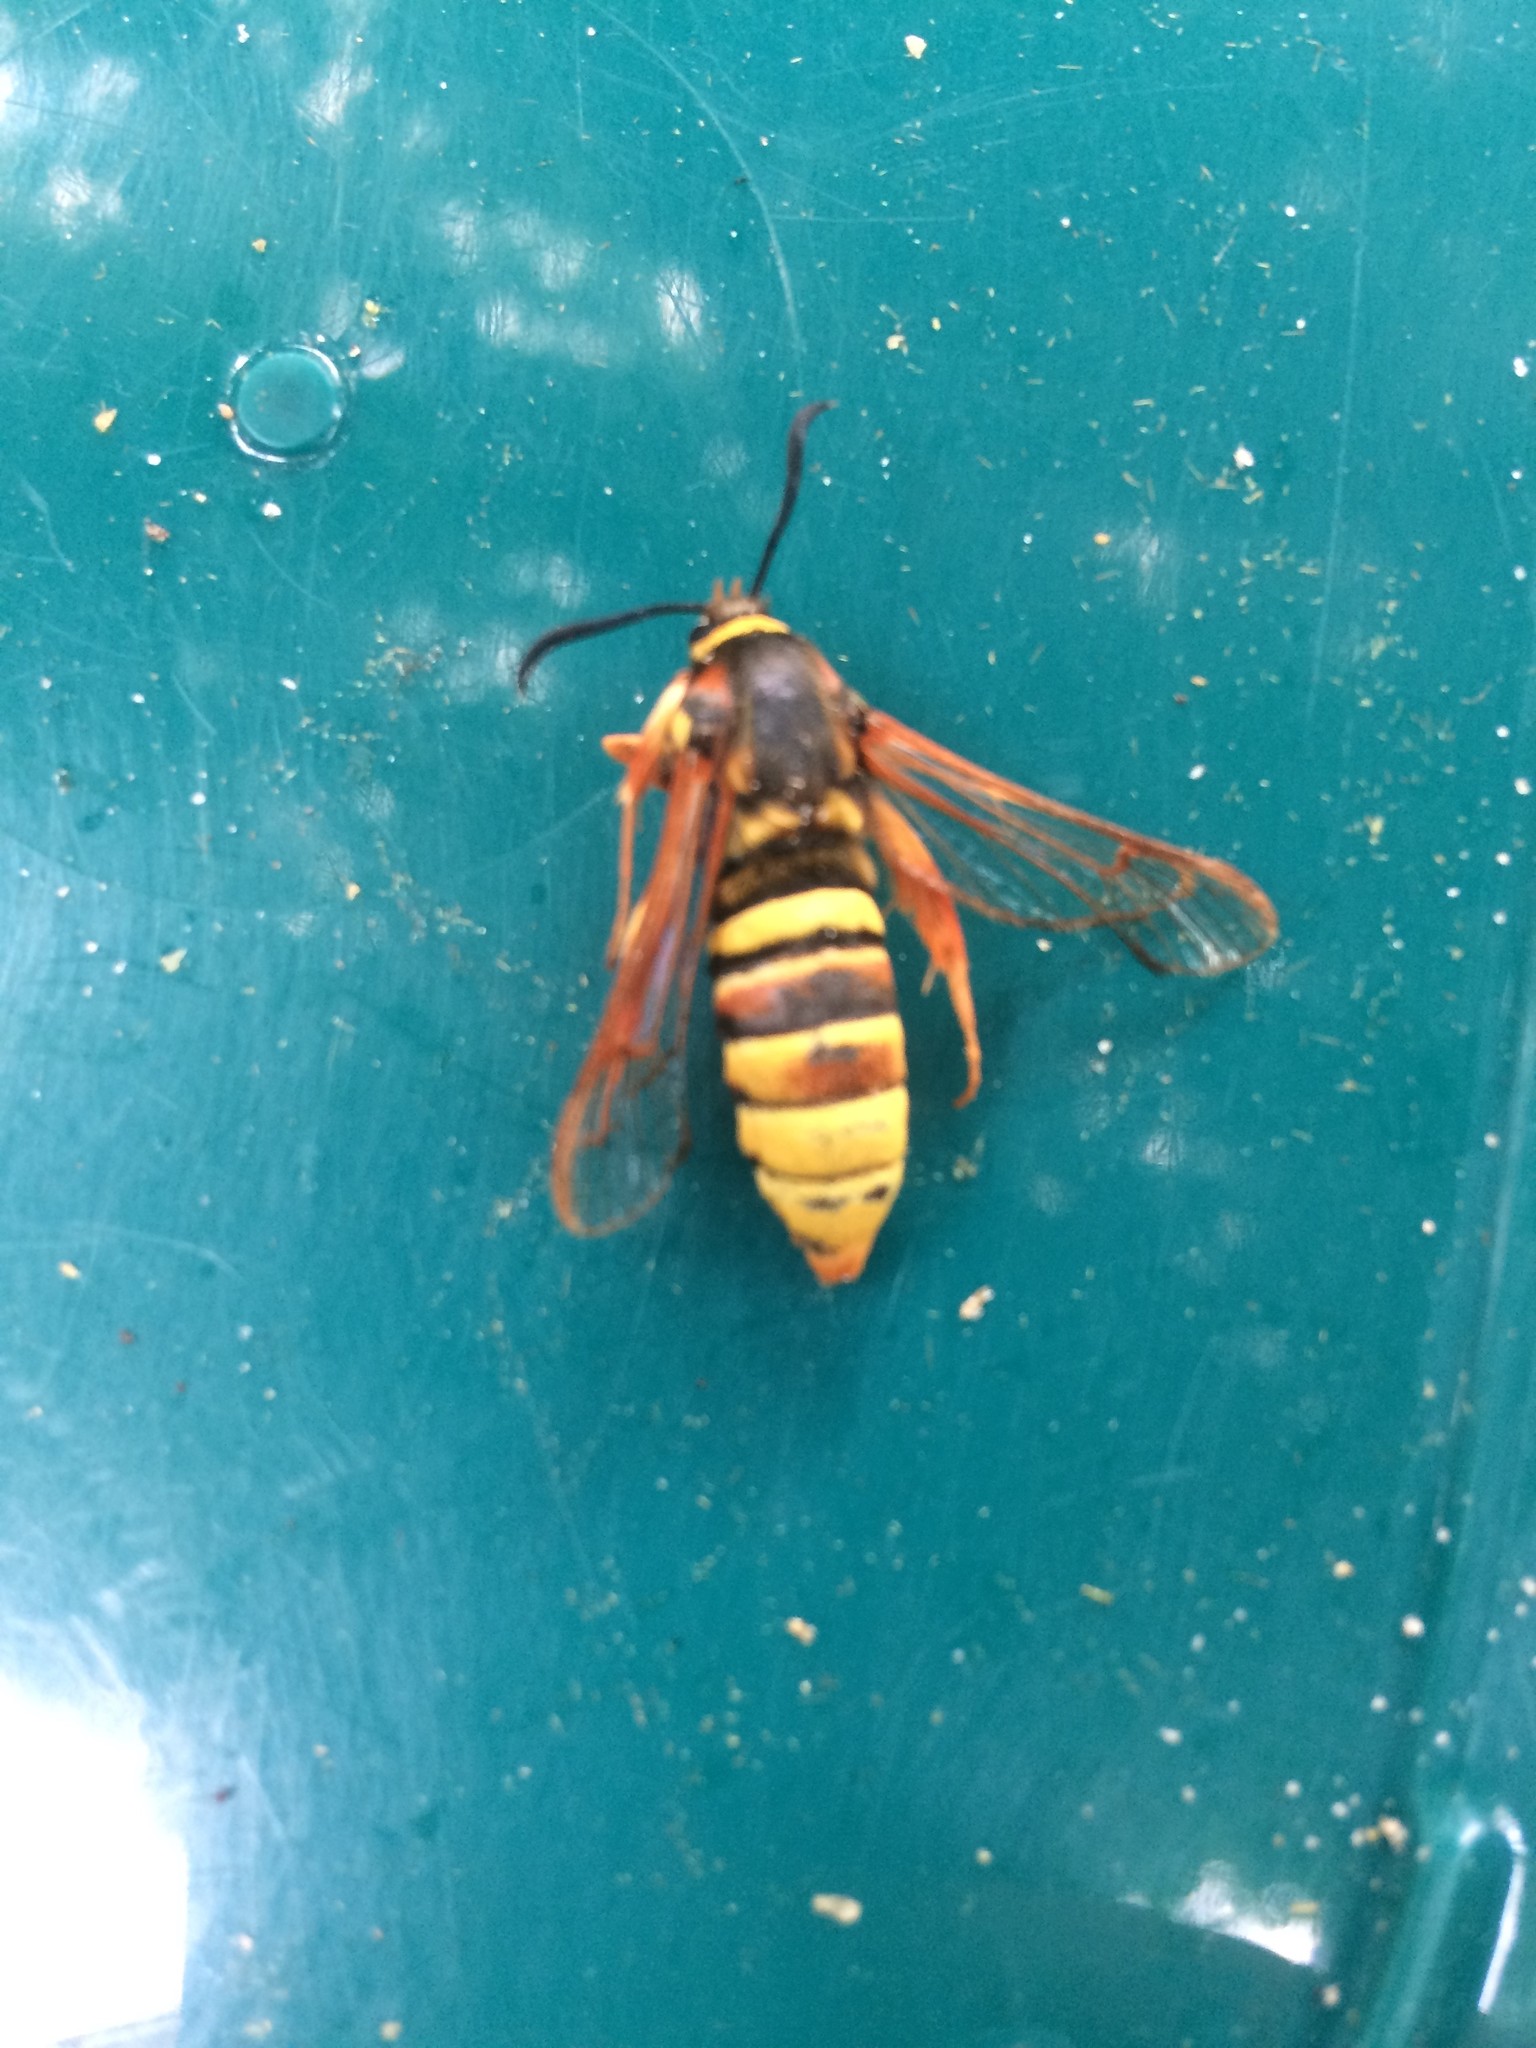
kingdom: Animalia
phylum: Arthropoda
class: Insecta
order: Lepidoptera
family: Sesiidae
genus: Sesia
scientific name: Sesia bembeciformis
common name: Lunar hornet moth
